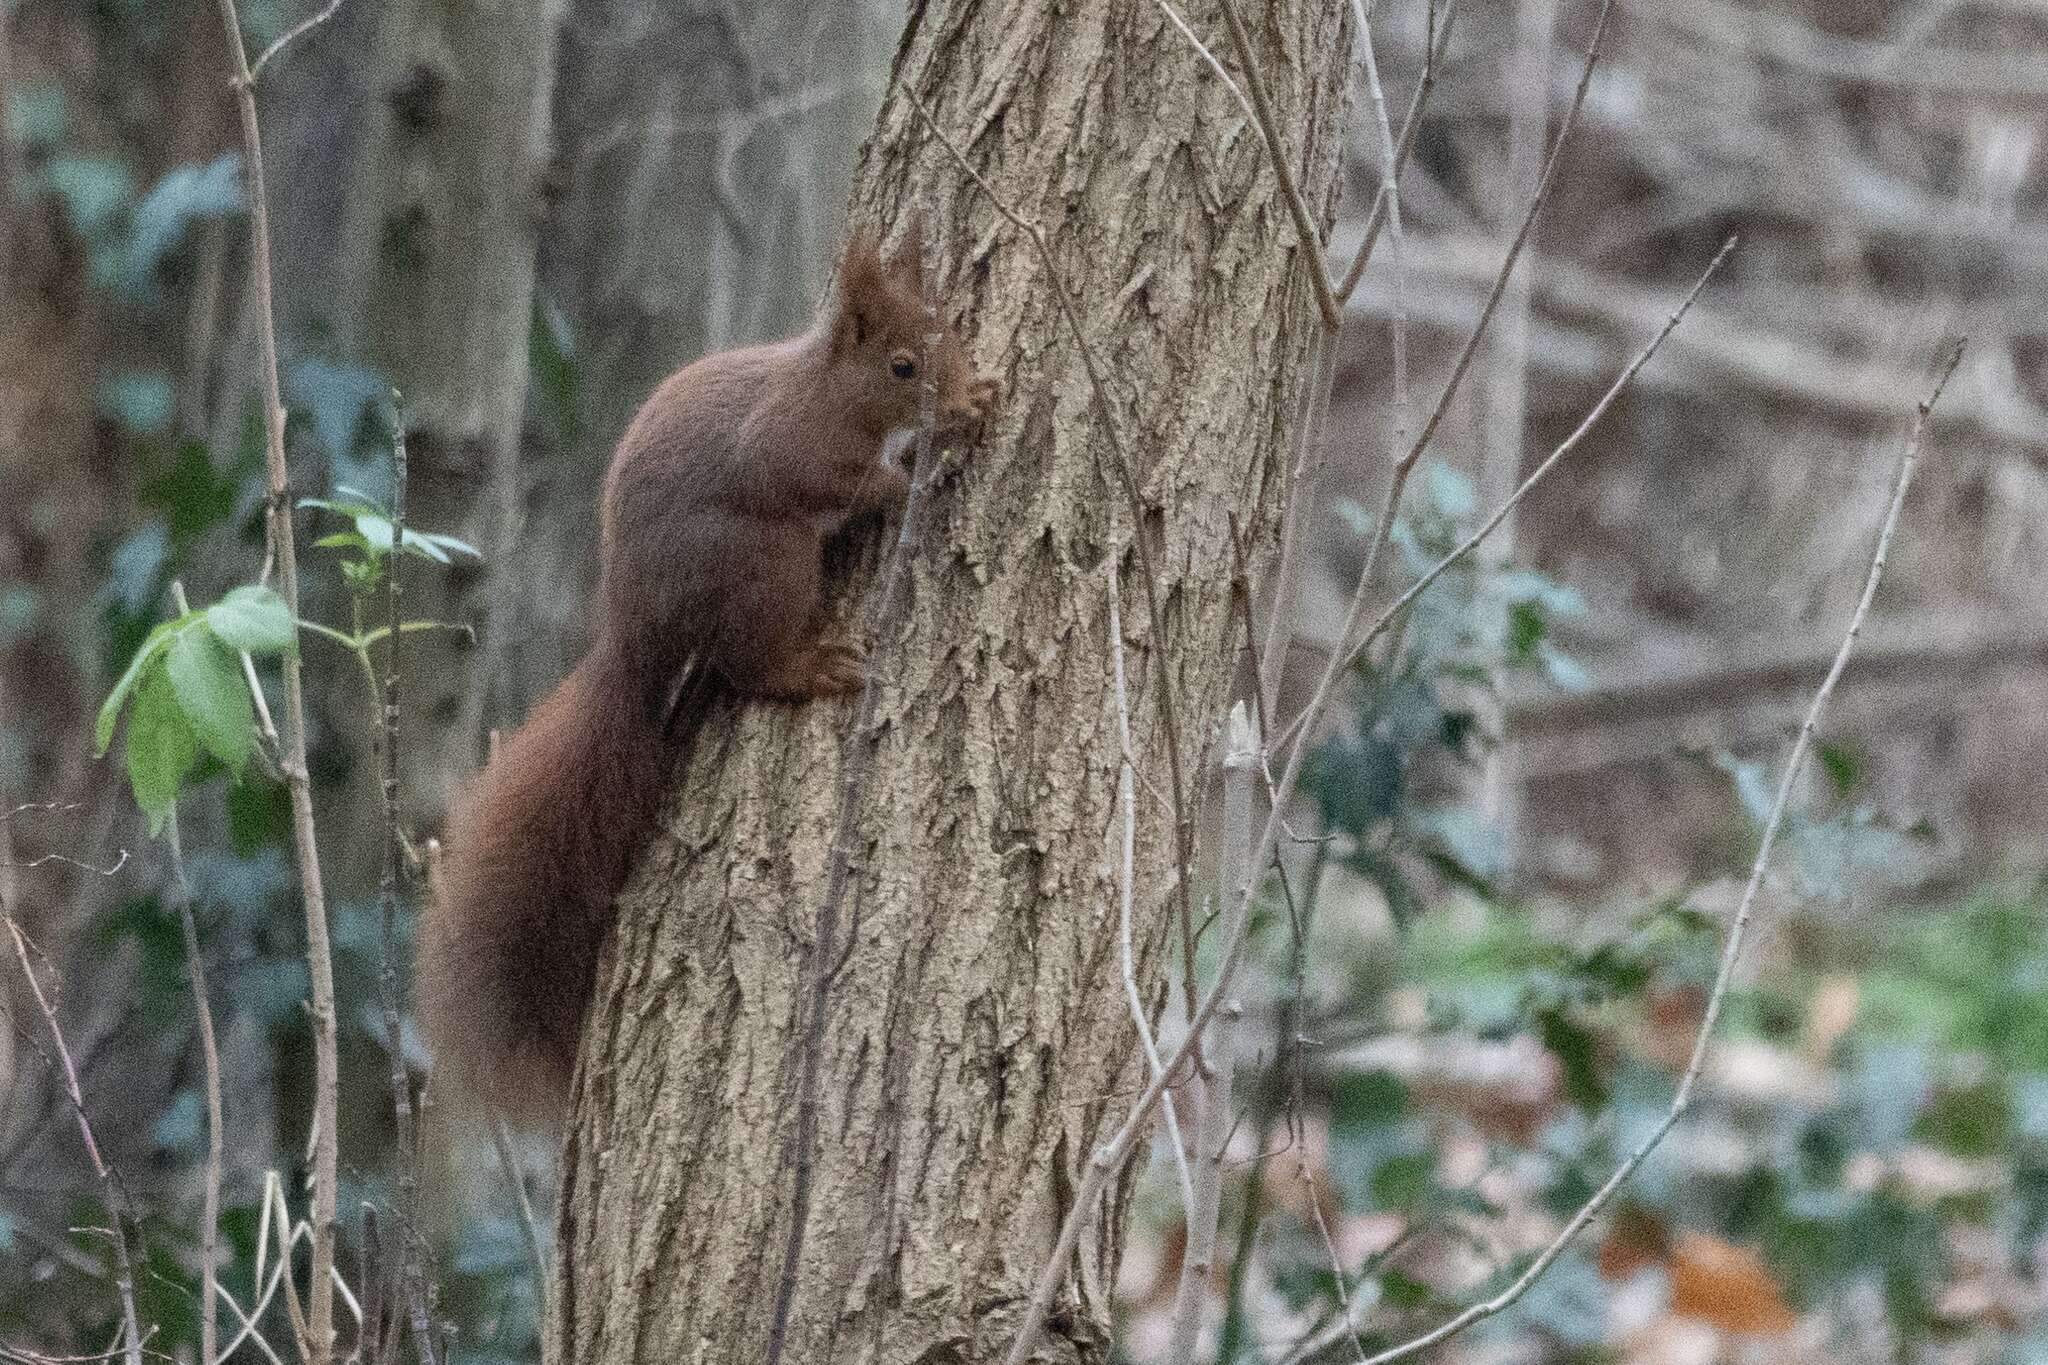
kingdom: Animalia
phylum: Chordata
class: Mammalia
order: Rodentia
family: Sciuridae
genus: Sciurus
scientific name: Sciurus vulgaris
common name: Eurasian red squirrel
